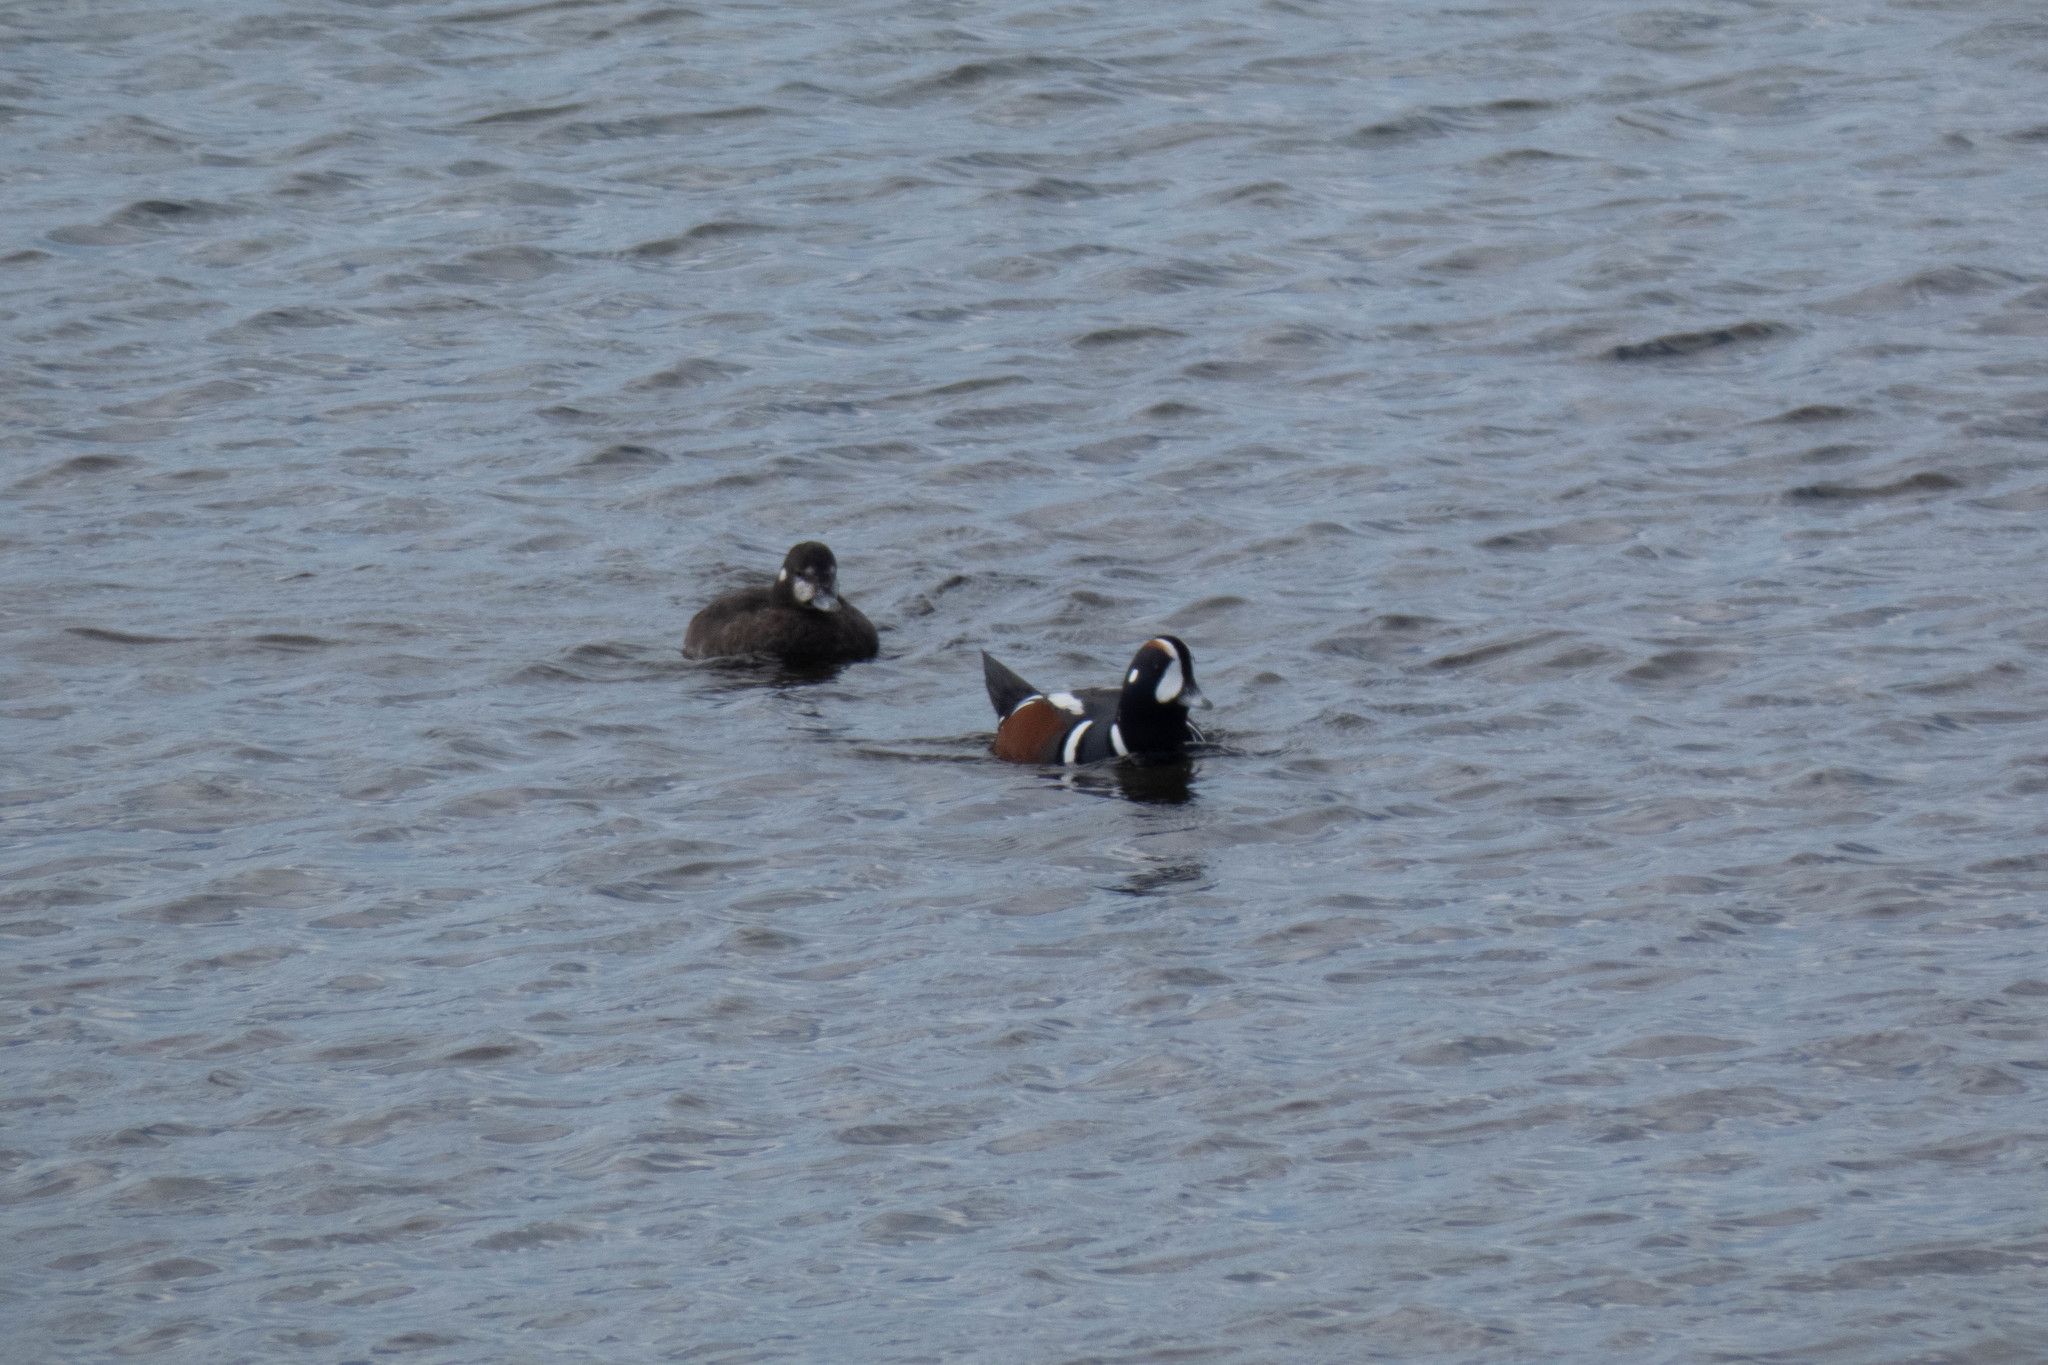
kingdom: Animalia
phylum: Chordata
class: Aves
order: Anseriformes
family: Anatidae
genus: Histrionicus
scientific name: Histrionicus histrionicus
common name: Harlequin duck
